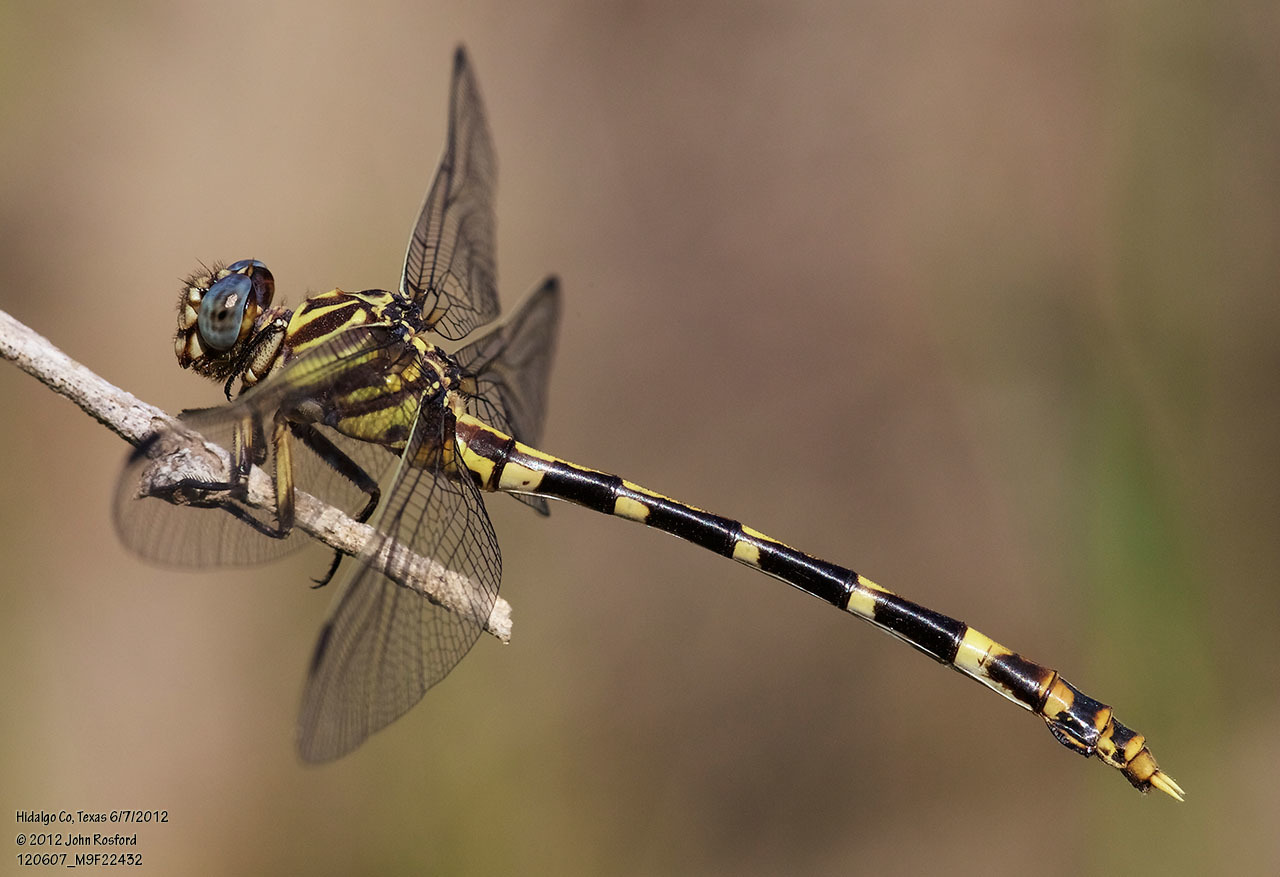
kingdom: Animalia
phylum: Arthropoda
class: Insecta
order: Odonata
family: Gomphidae
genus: Phyllogomphoides
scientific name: Phyllogomphoides albrighti
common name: Five-striped leaftail
